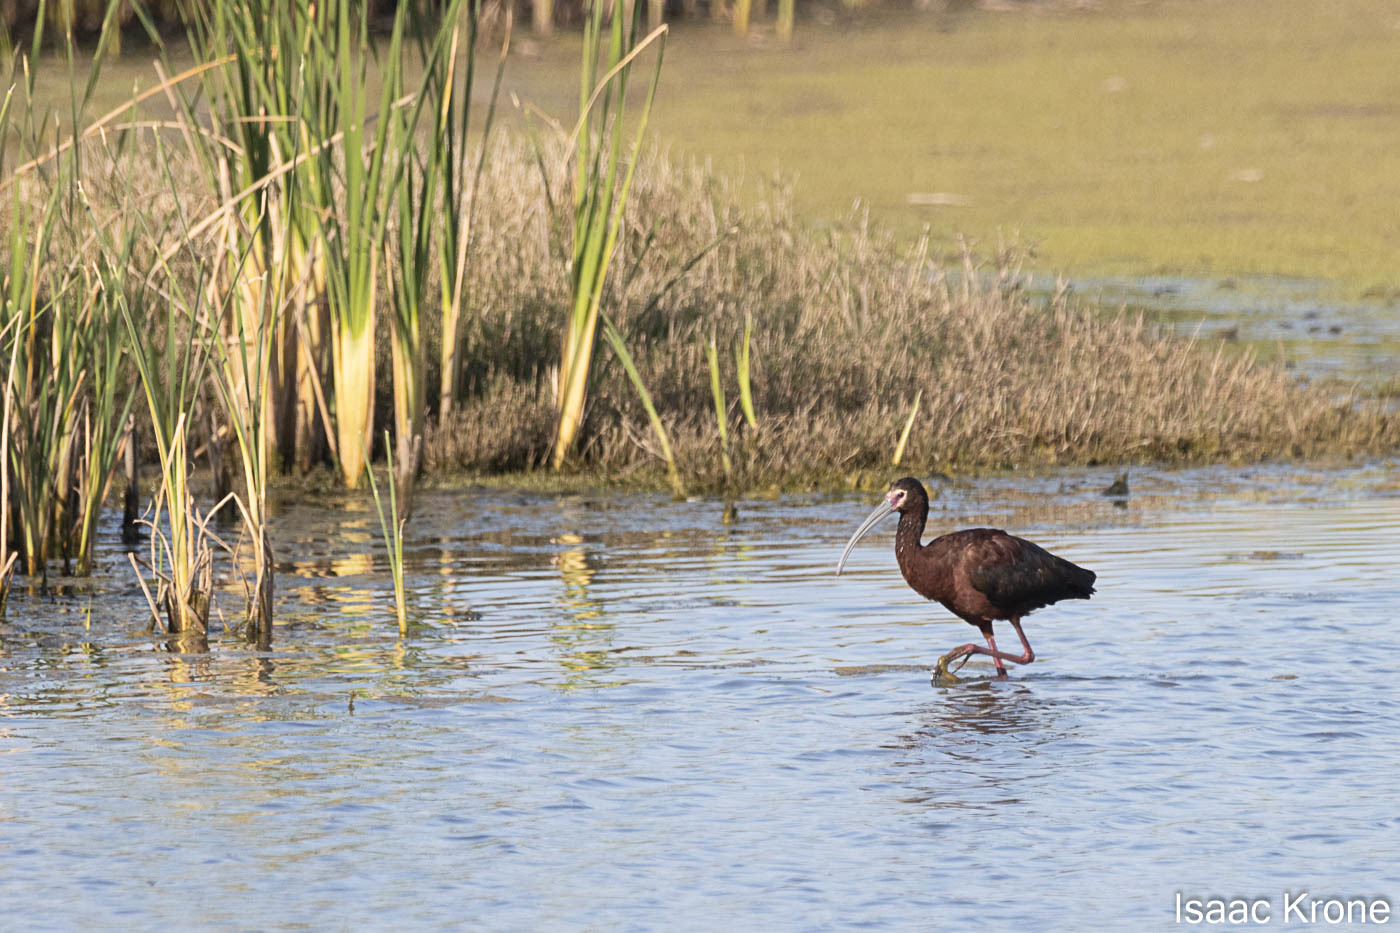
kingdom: Animalia
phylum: Chordata
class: Aves
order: Pelecaniformes
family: Threskiornithidae
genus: Plegadis
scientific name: Plegadis chihi
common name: White-faced ibis
